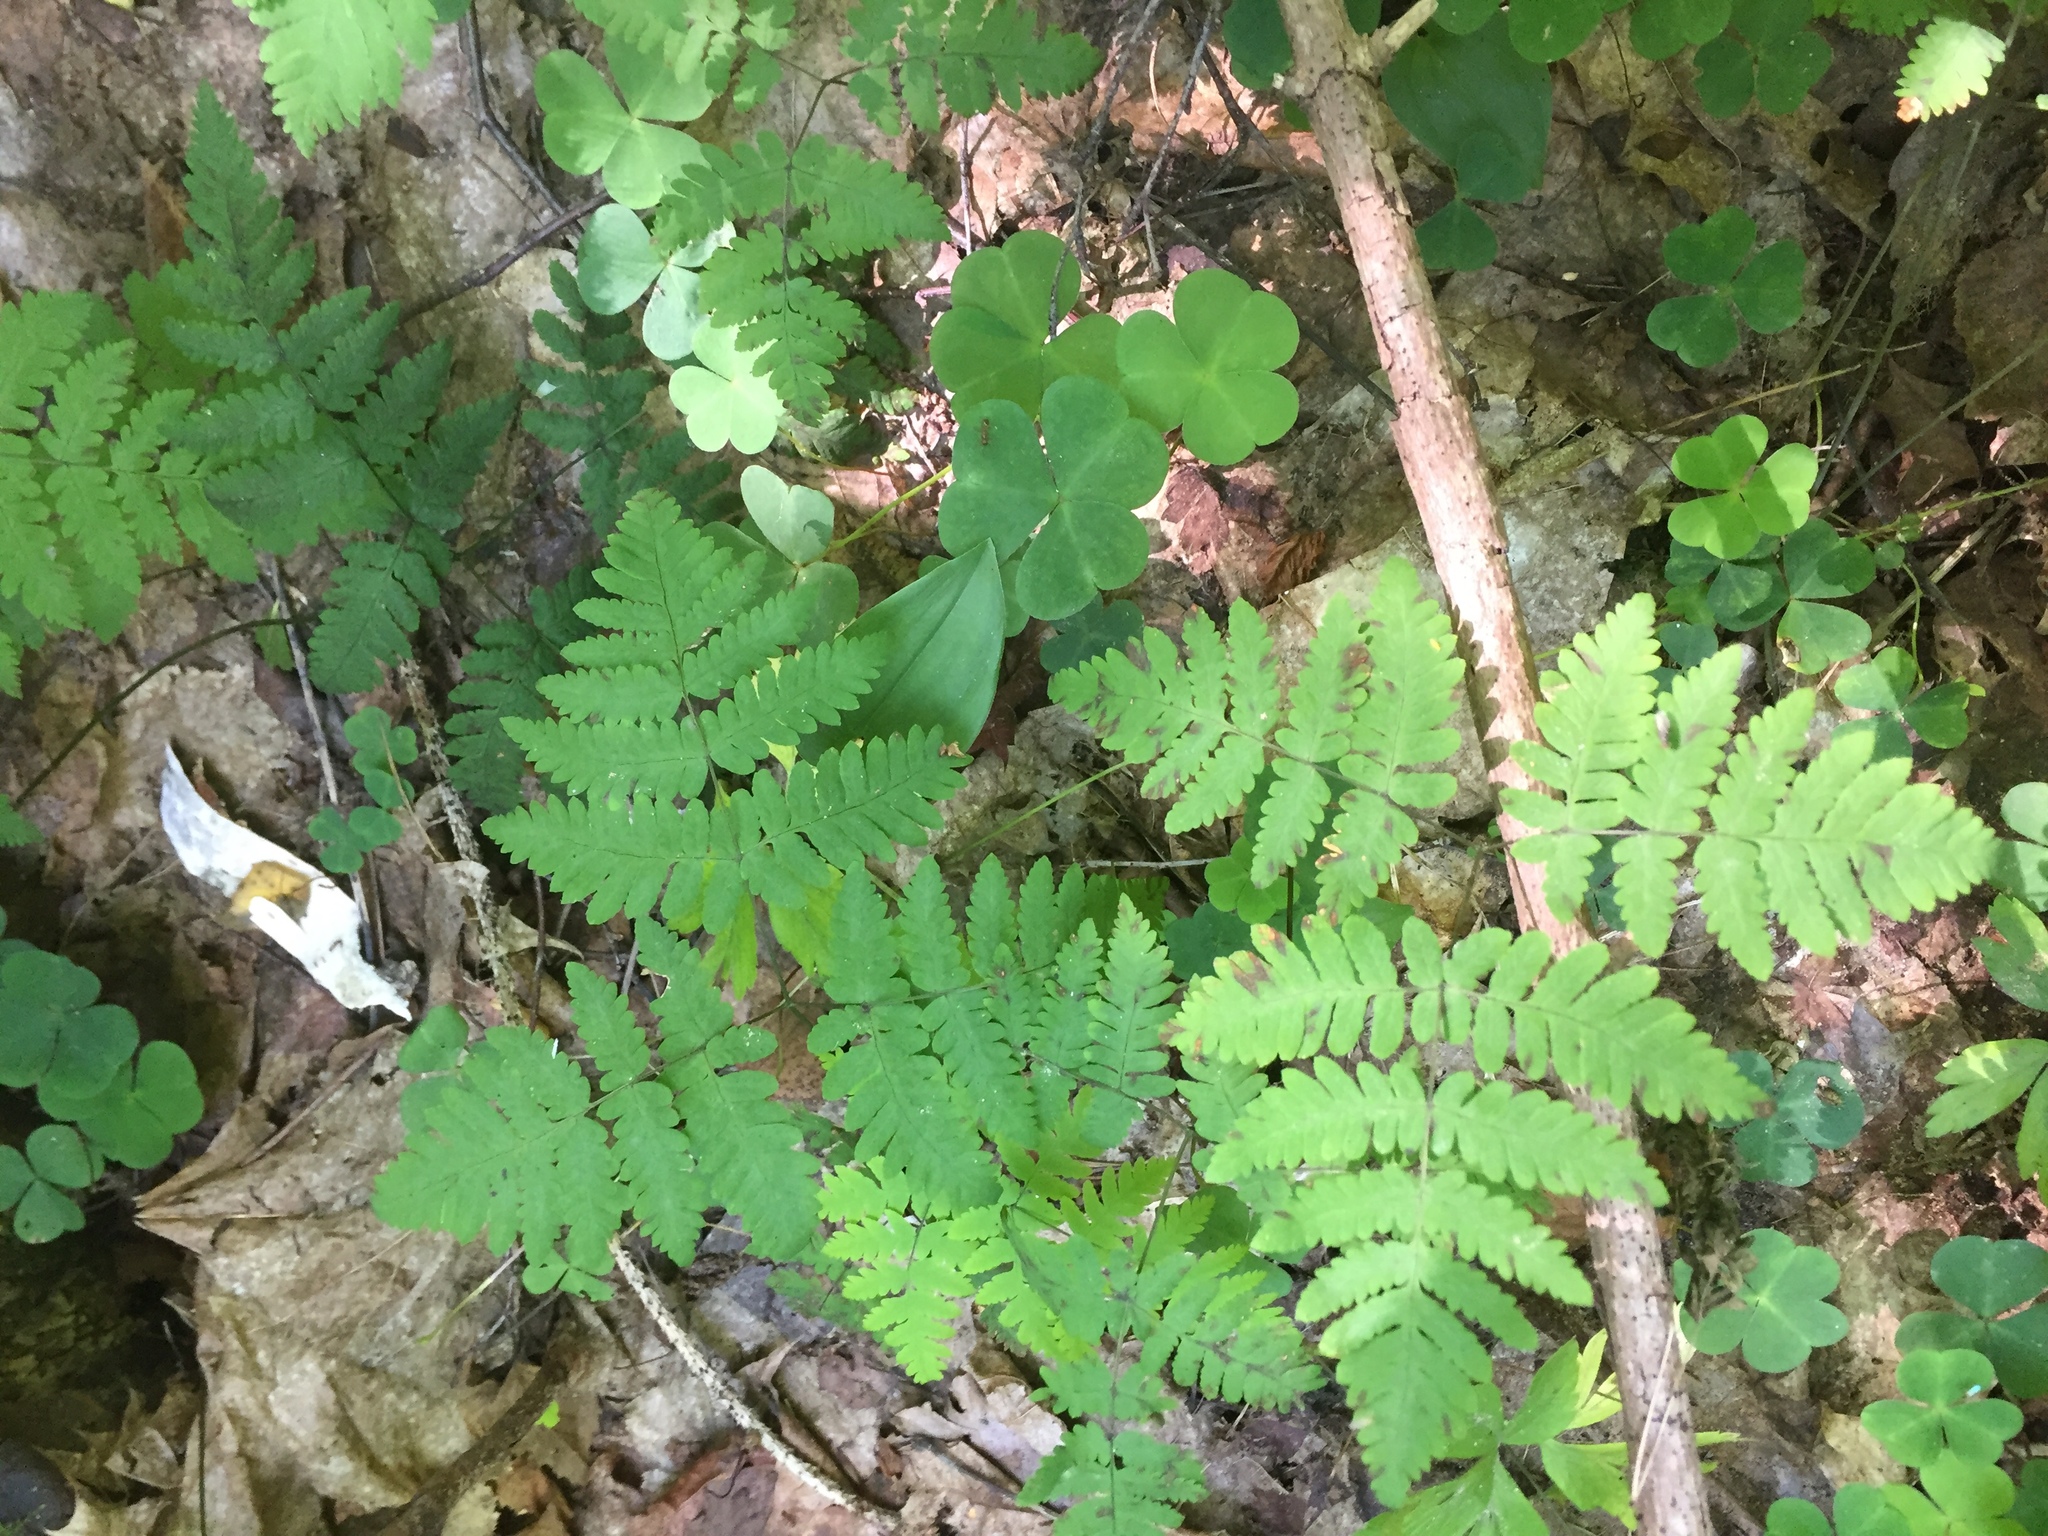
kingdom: Plantae
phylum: Tracheophyta
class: Polypodiopsida
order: Polypodiales
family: Cystopteridaceae
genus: Gymnocarpium
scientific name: Gymnocarpium dryopteris
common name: Oak fern
